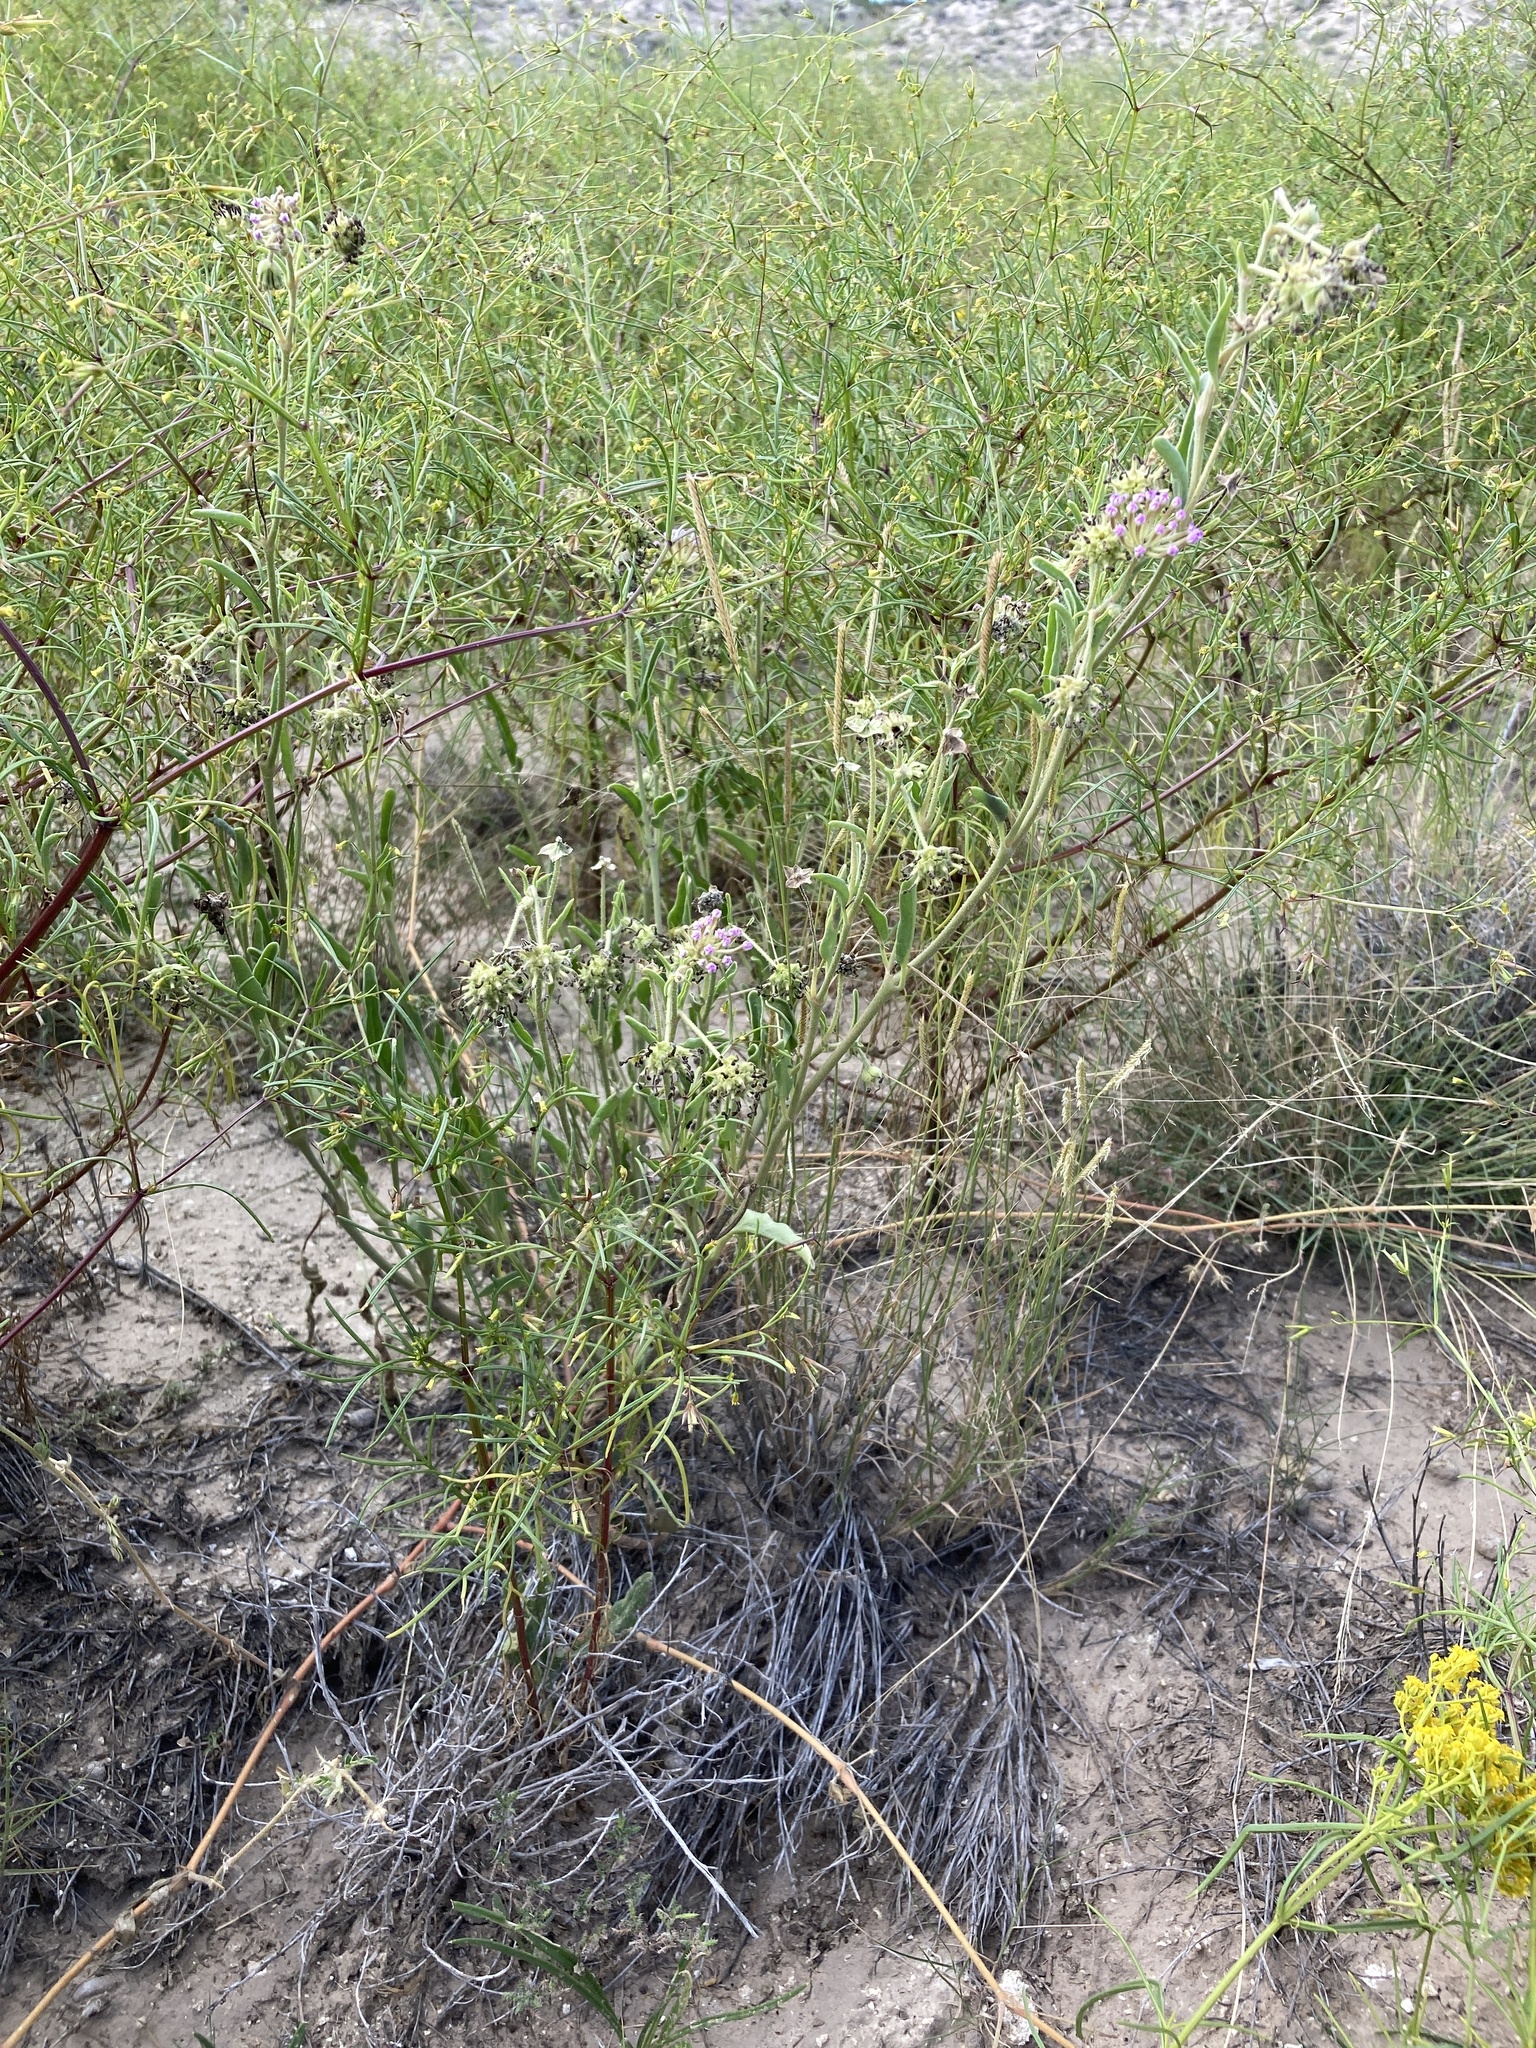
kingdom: Plantae
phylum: Tracheophyta
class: Magnoliopsida
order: Caryophyllales
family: Nyctaginaceae
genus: Abronia
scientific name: Abronia carletonii
